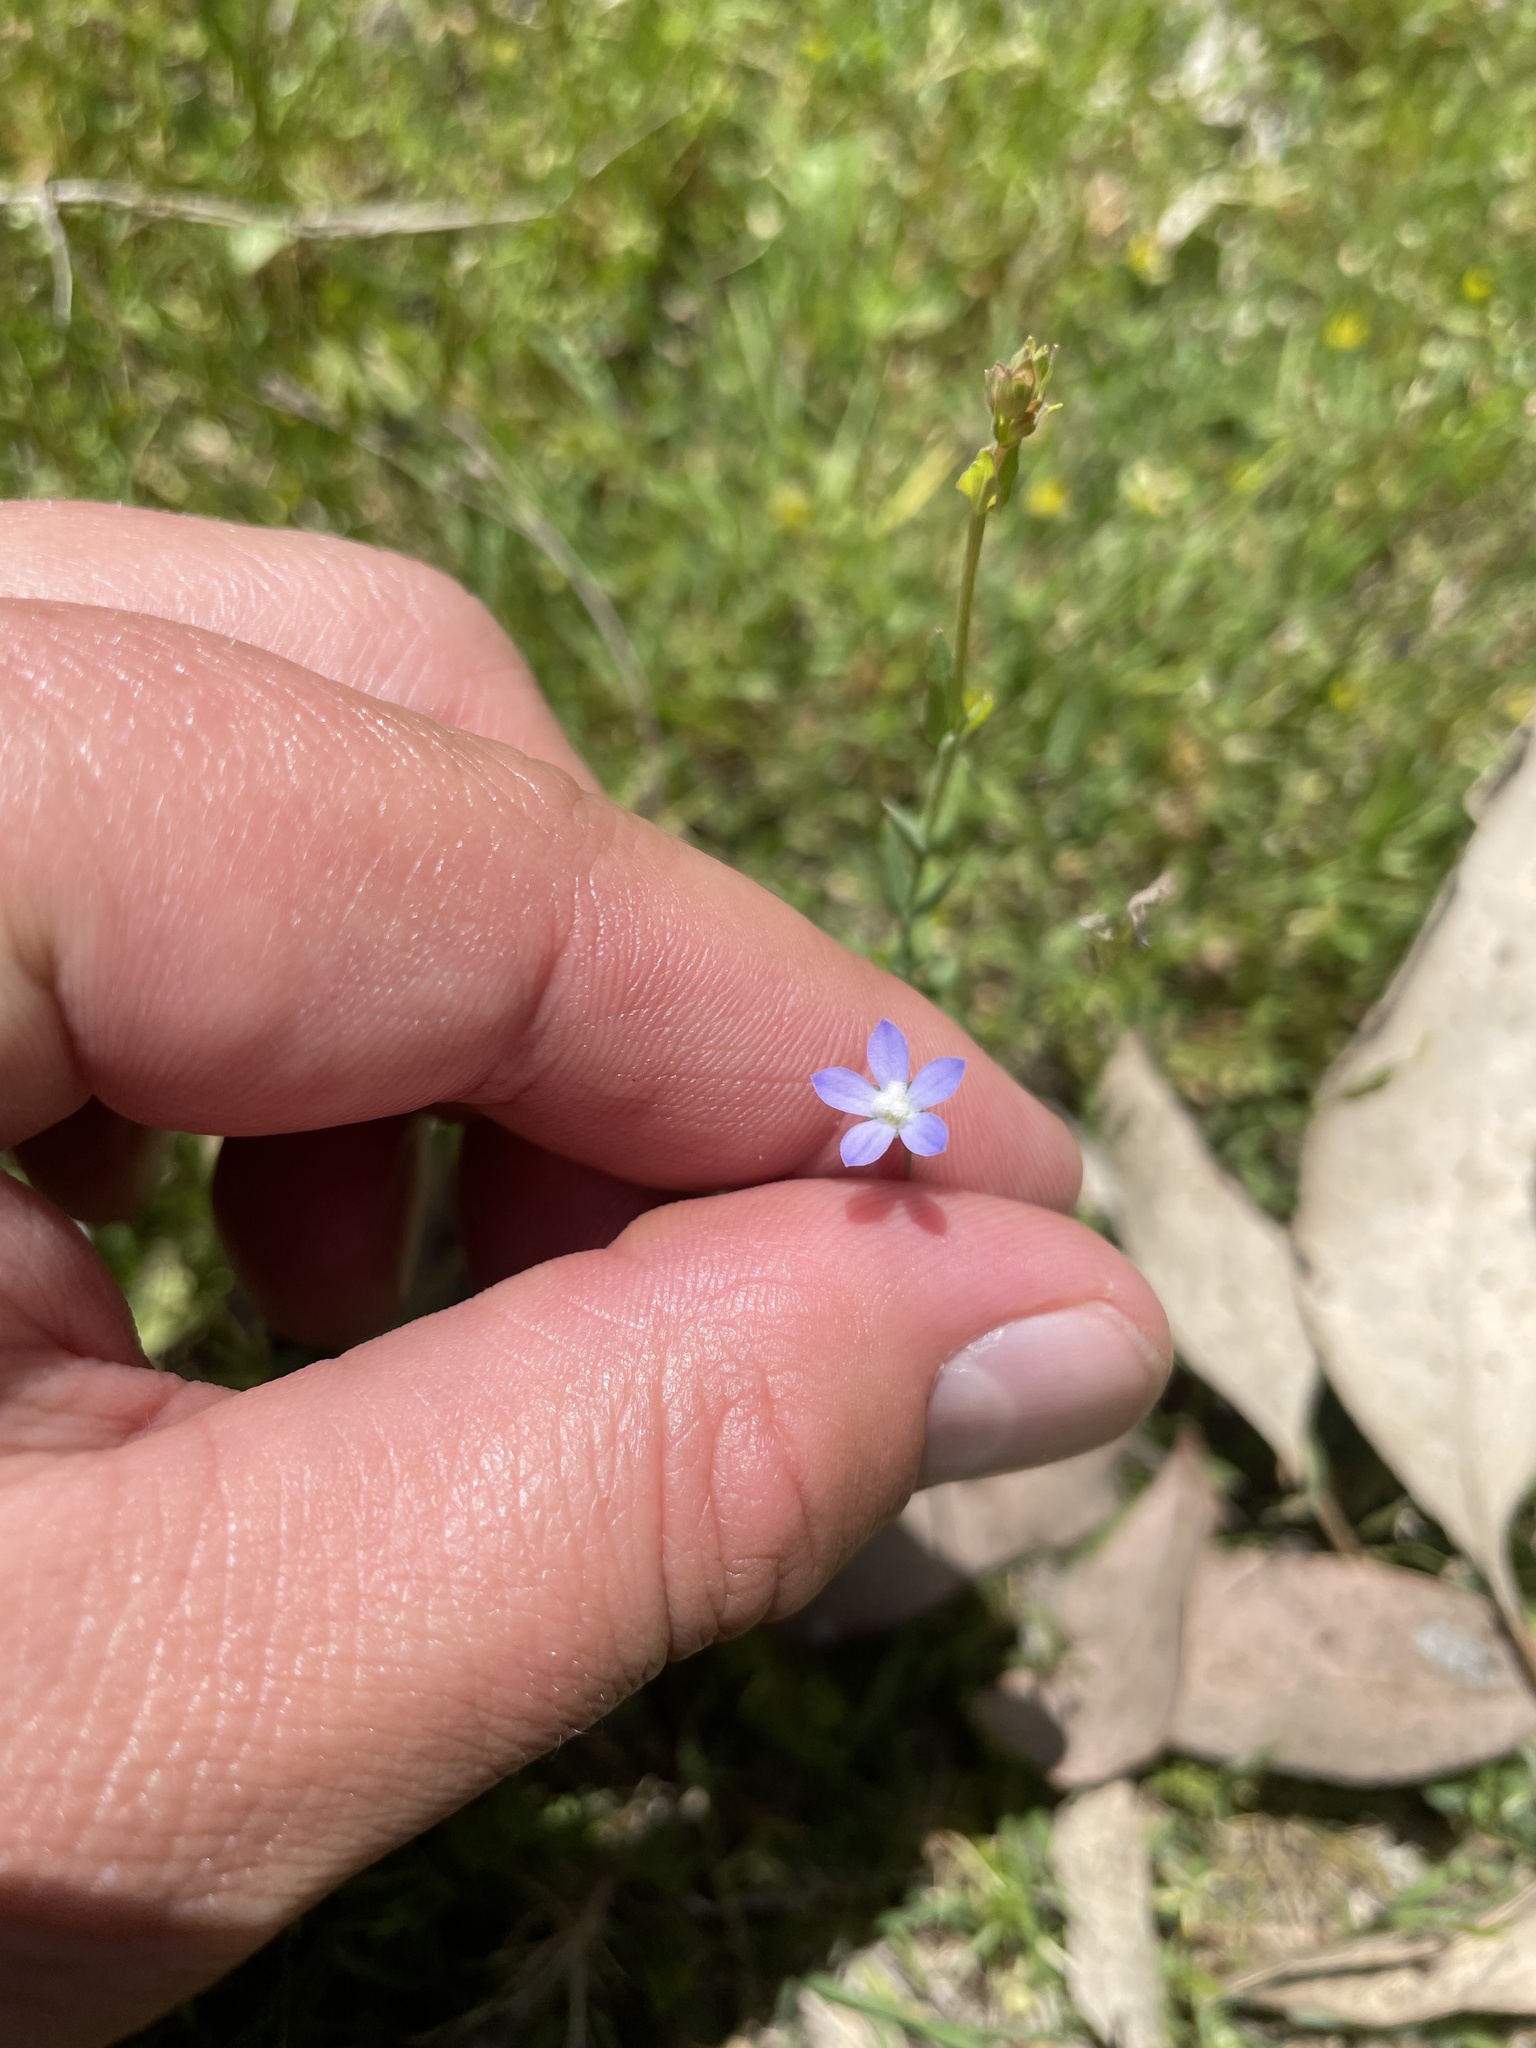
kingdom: Plantae
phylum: Tracheophyta
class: Magnoliopsida
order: Asterales
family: Campanulaceae
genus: Wahlenbergia
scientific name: Wahlenbergia
